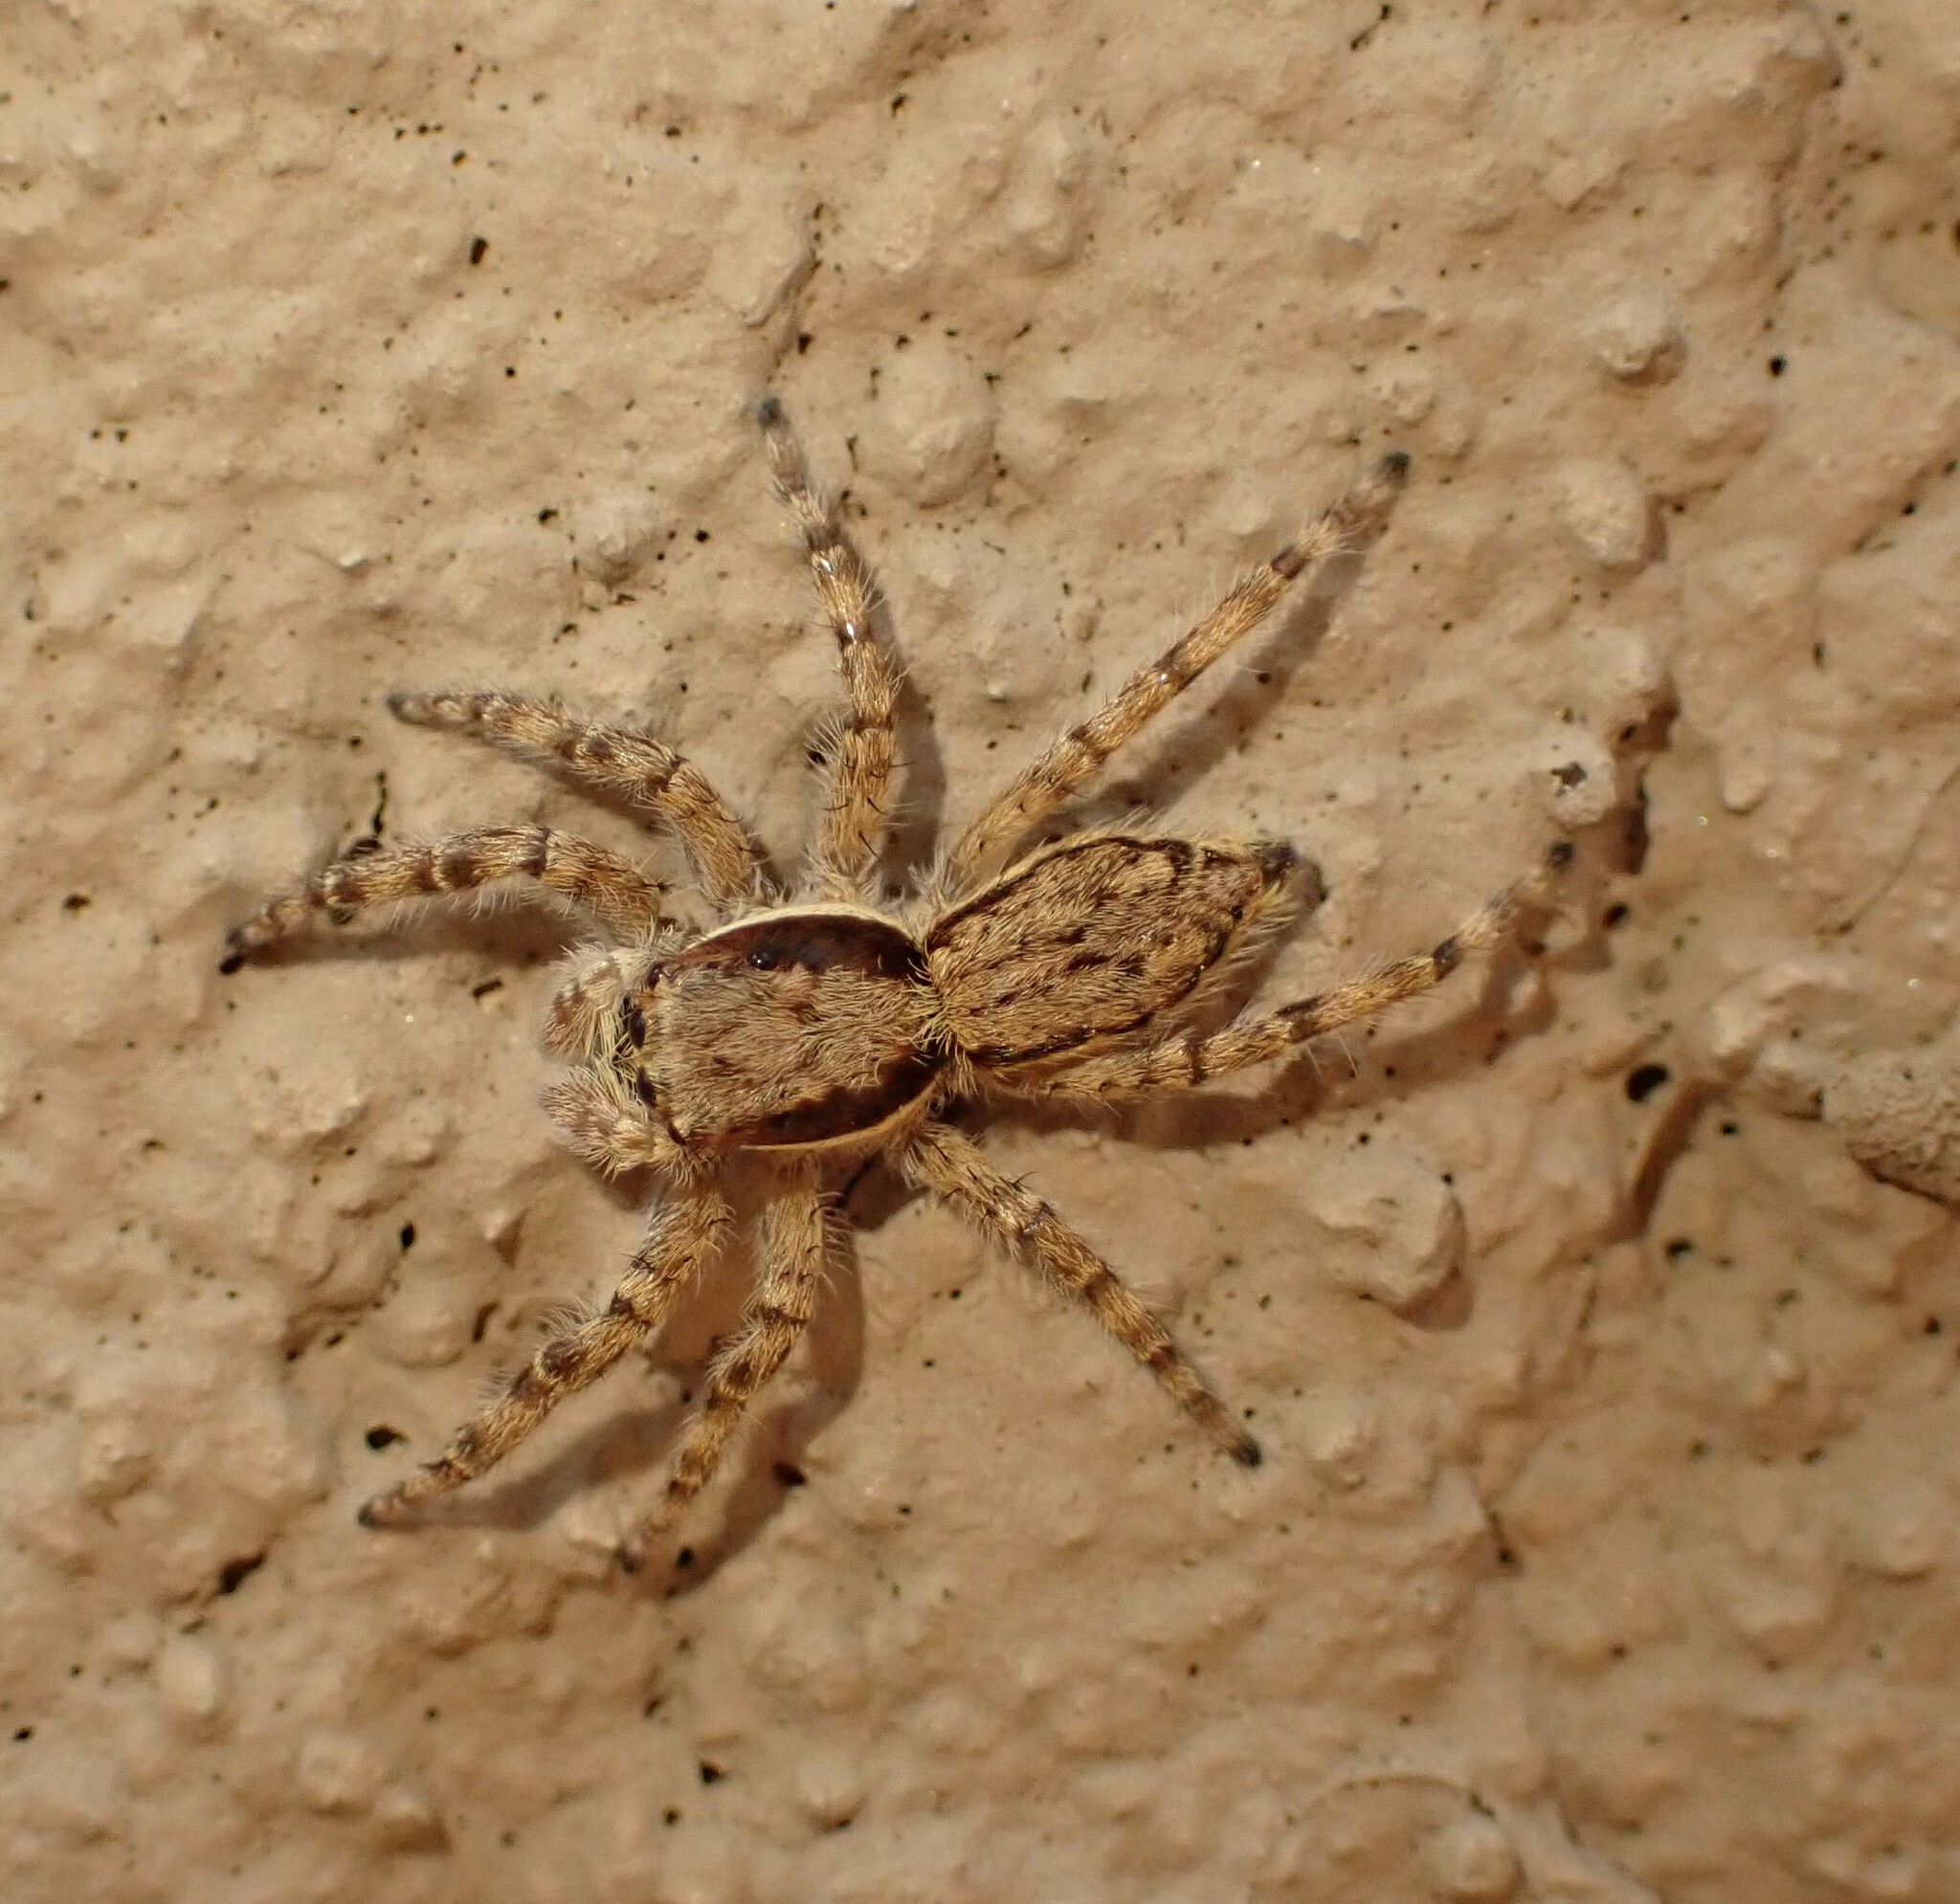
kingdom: Animalia
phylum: Arthropoda
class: Arachnida
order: Araneae
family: Salticidae
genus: Menemerus
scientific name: Menemerus bivittatus
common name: Gray wall jumper
